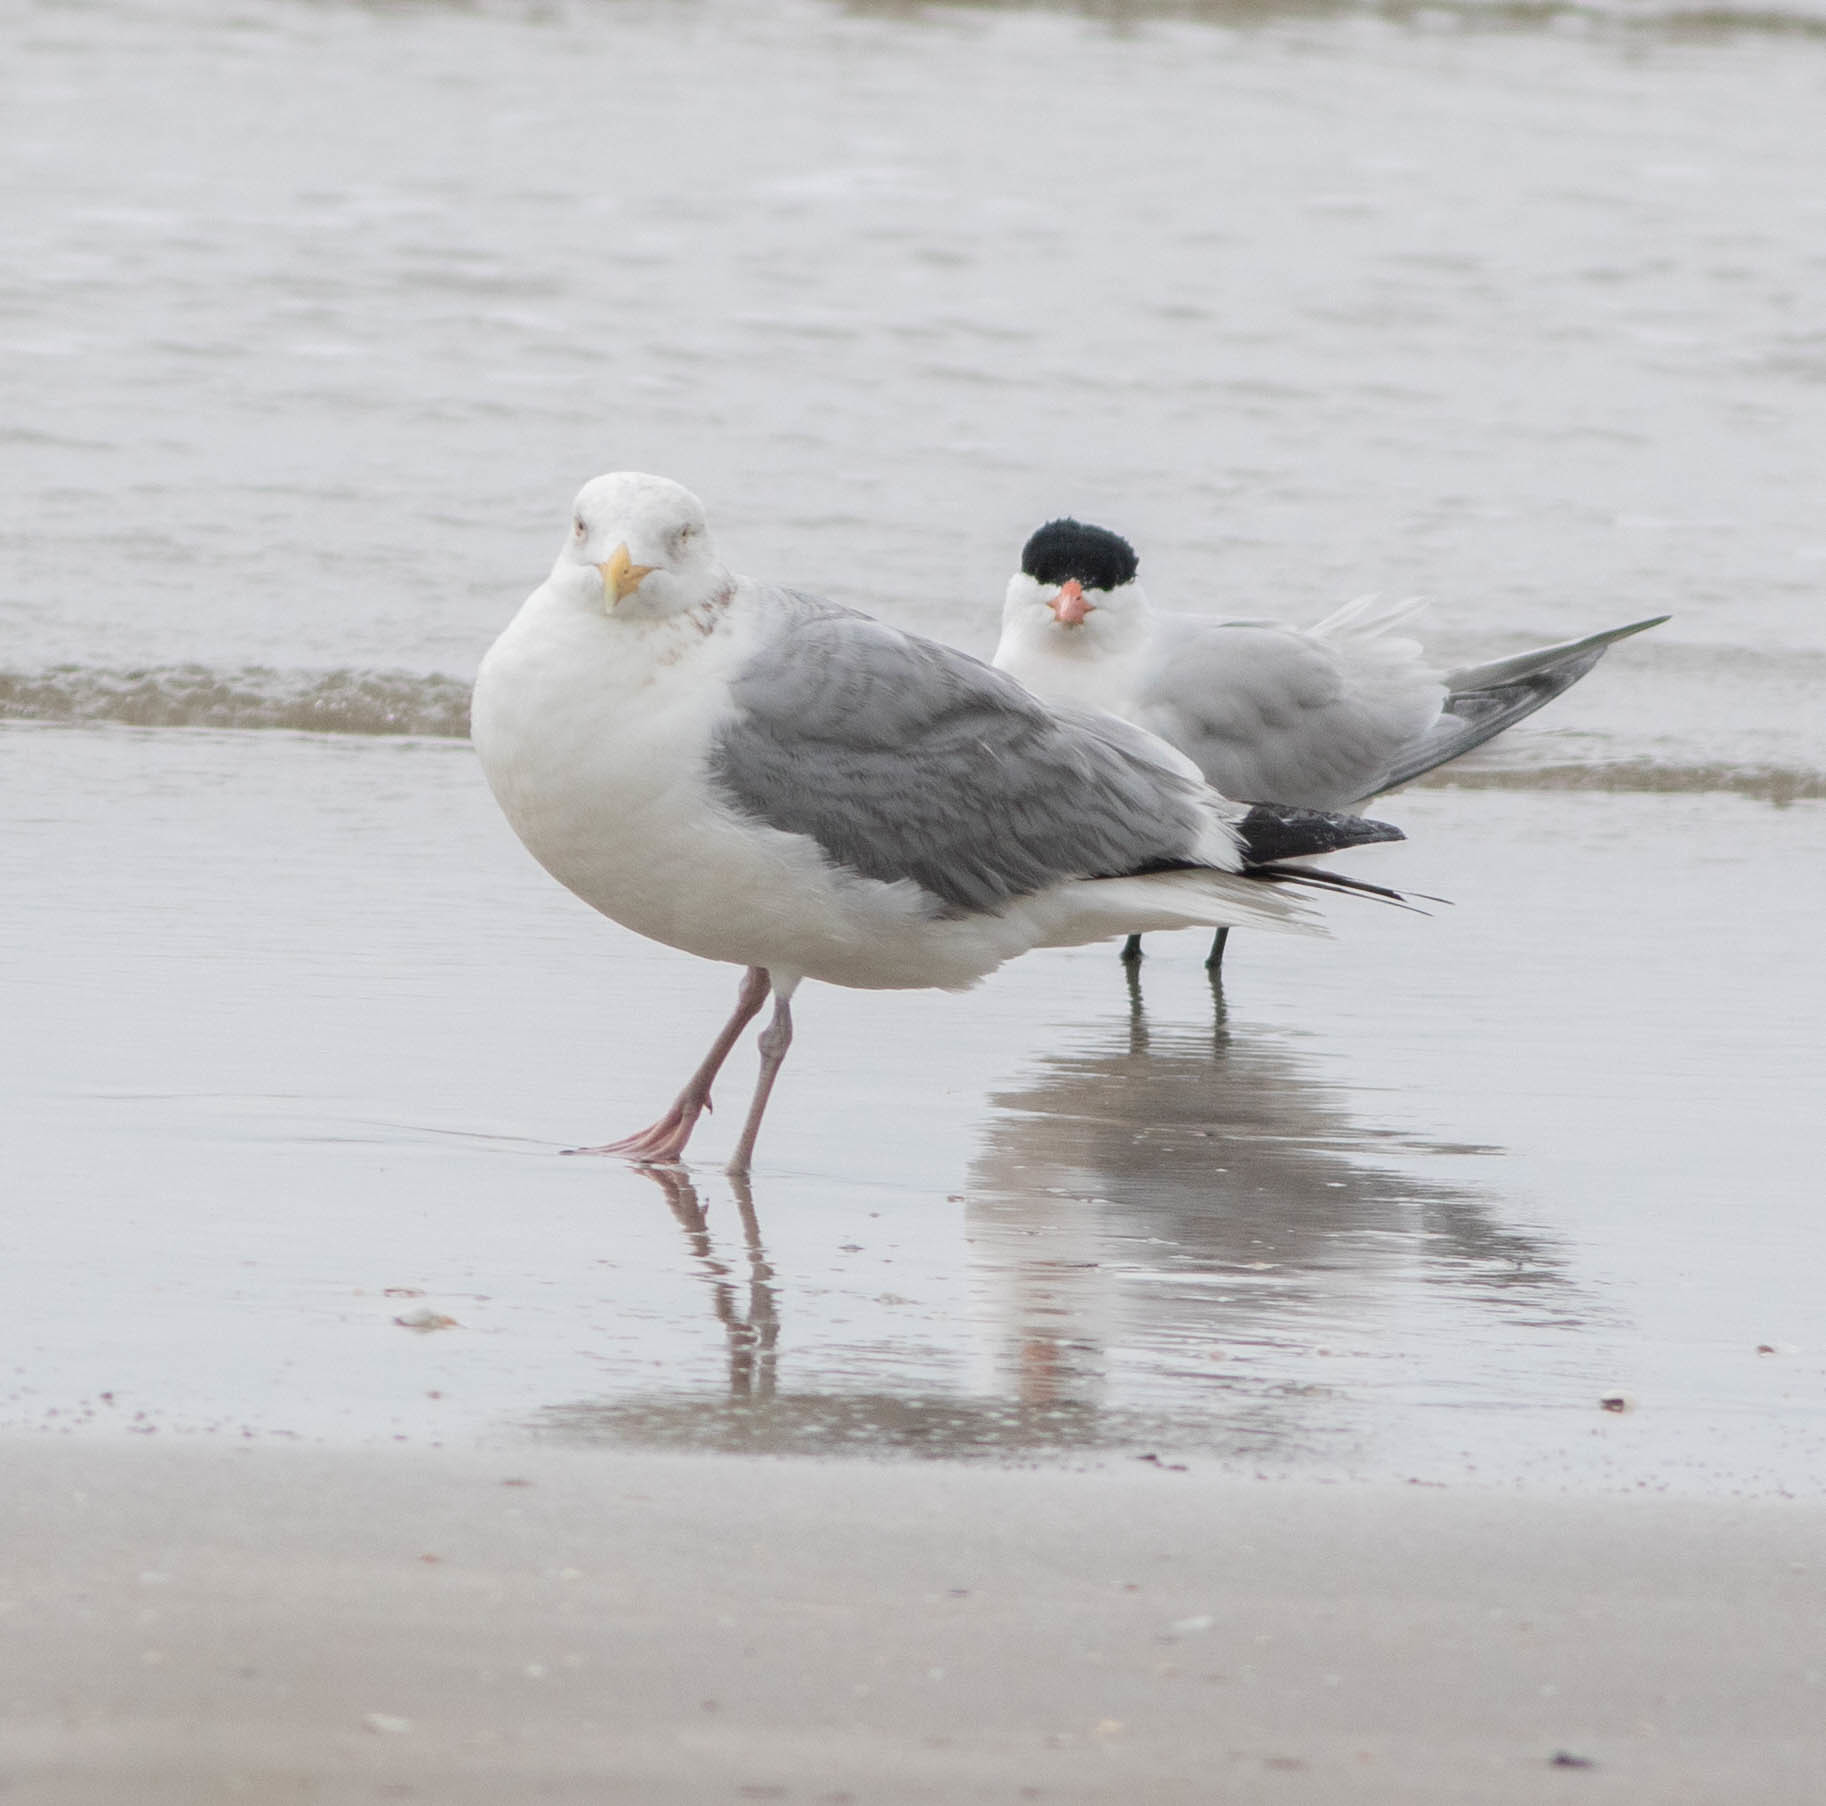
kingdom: Animalia
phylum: Chordata
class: Aves
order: Charadriiformes
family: Laridae
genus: Larus
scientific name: Larus argentatus
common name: Herring gull
